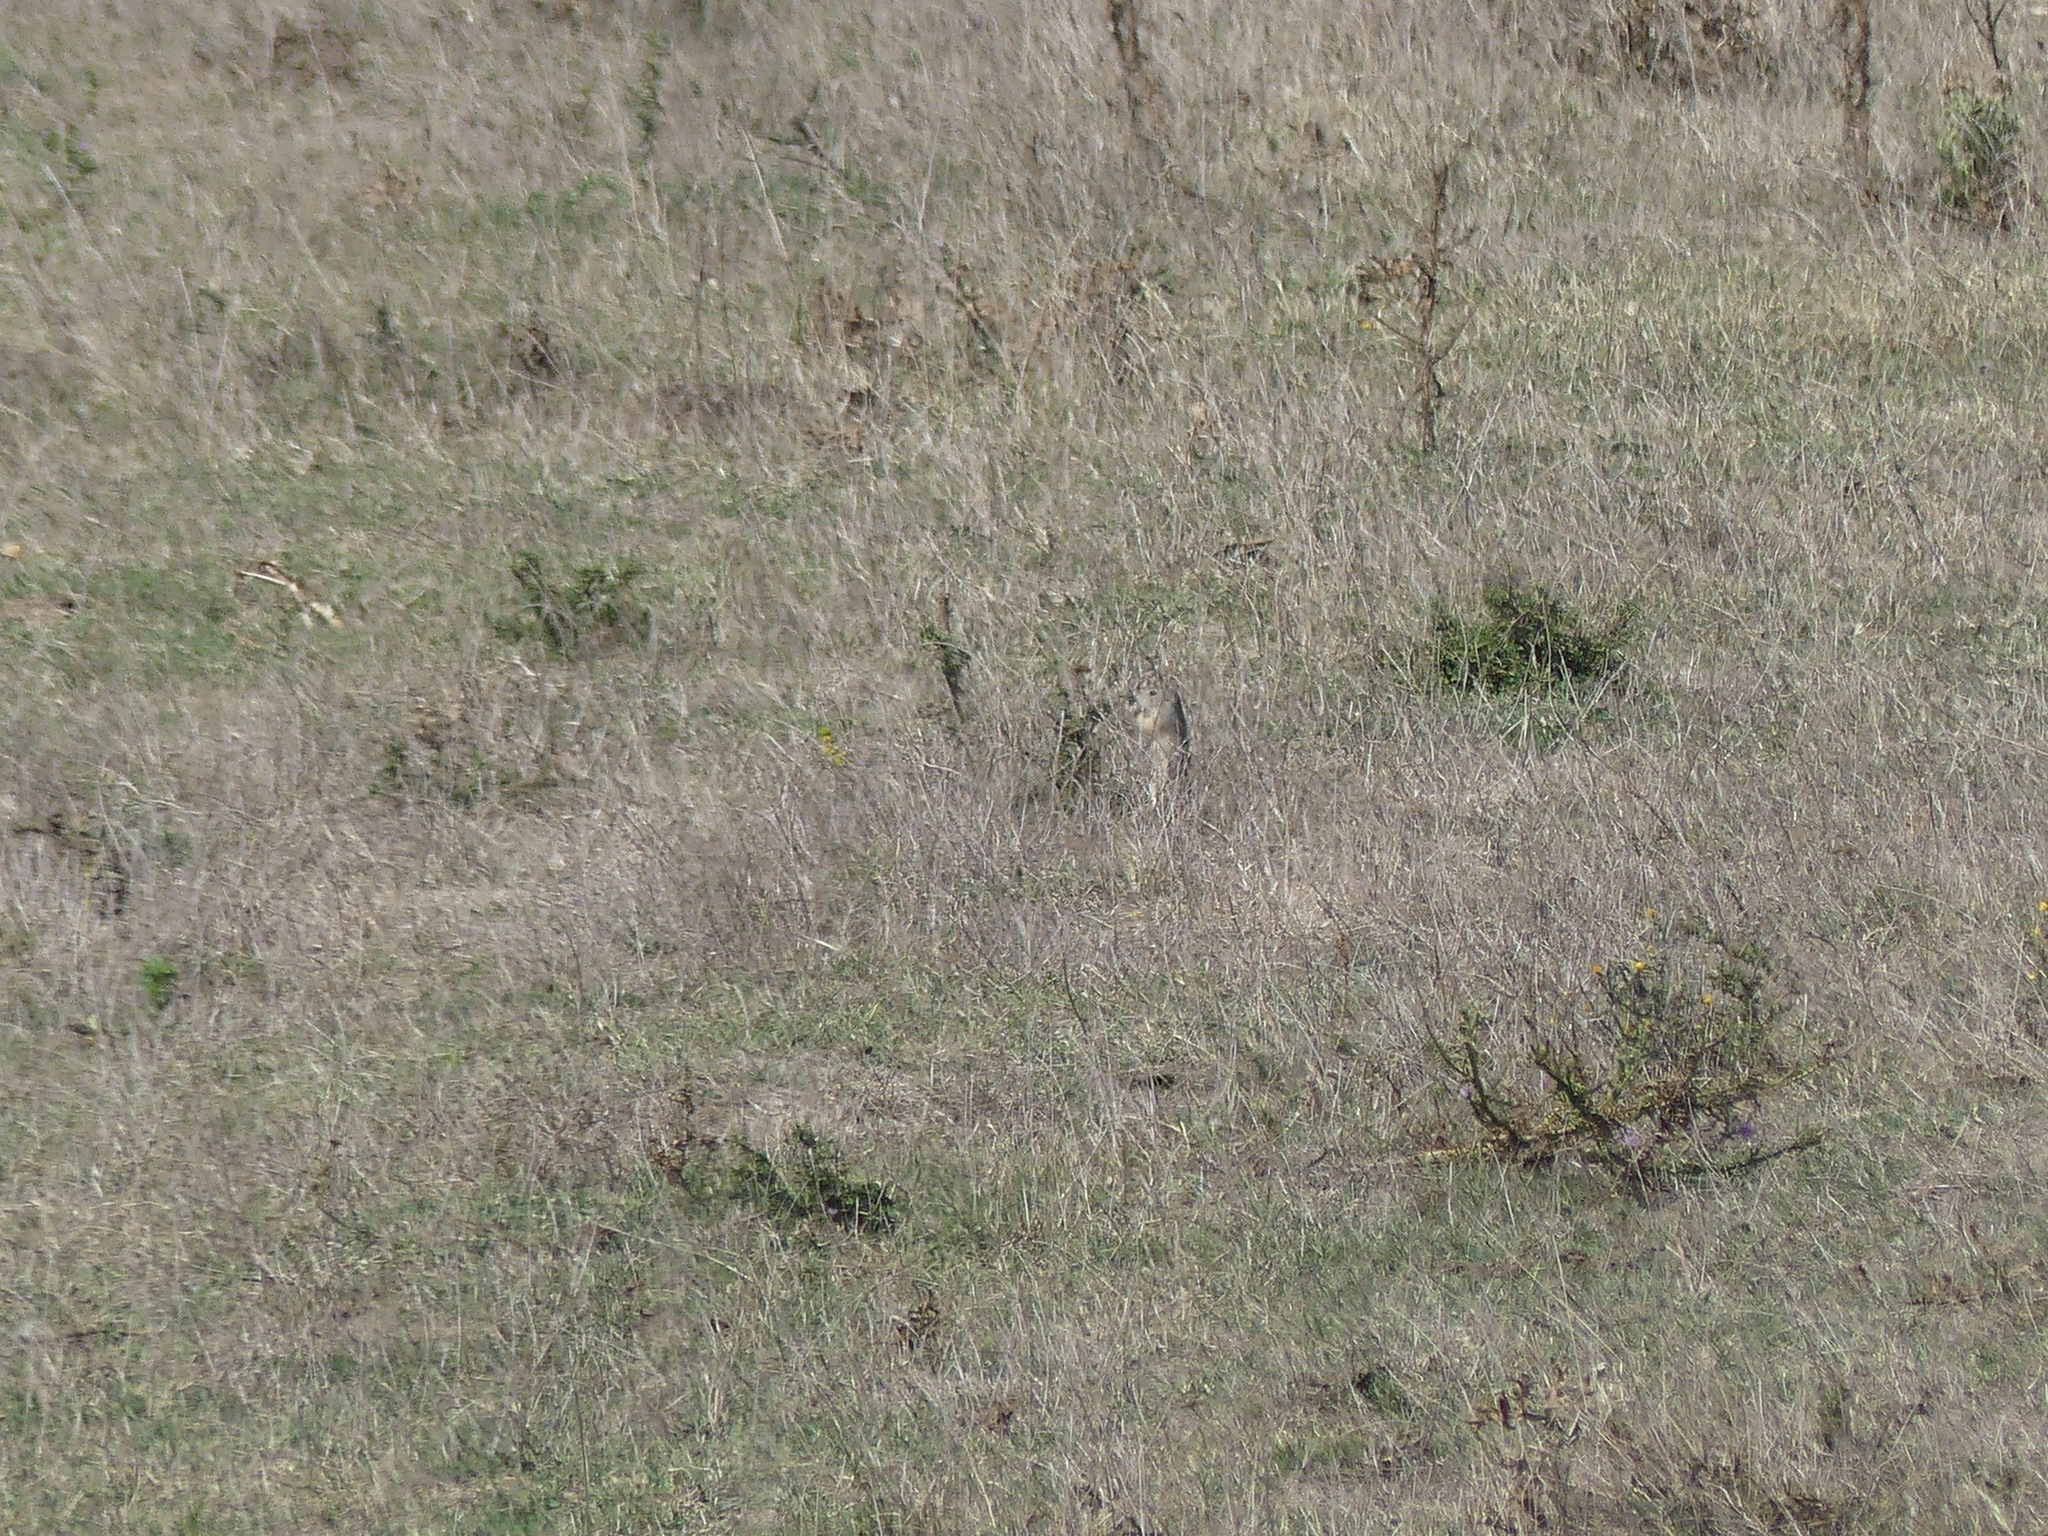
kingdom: Animalia
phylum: Chordata
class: Mammalia
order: Rodentia
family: Sciuridae
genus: Spermophilus
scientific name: Spermophilus citellus
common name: European ground squirrel
